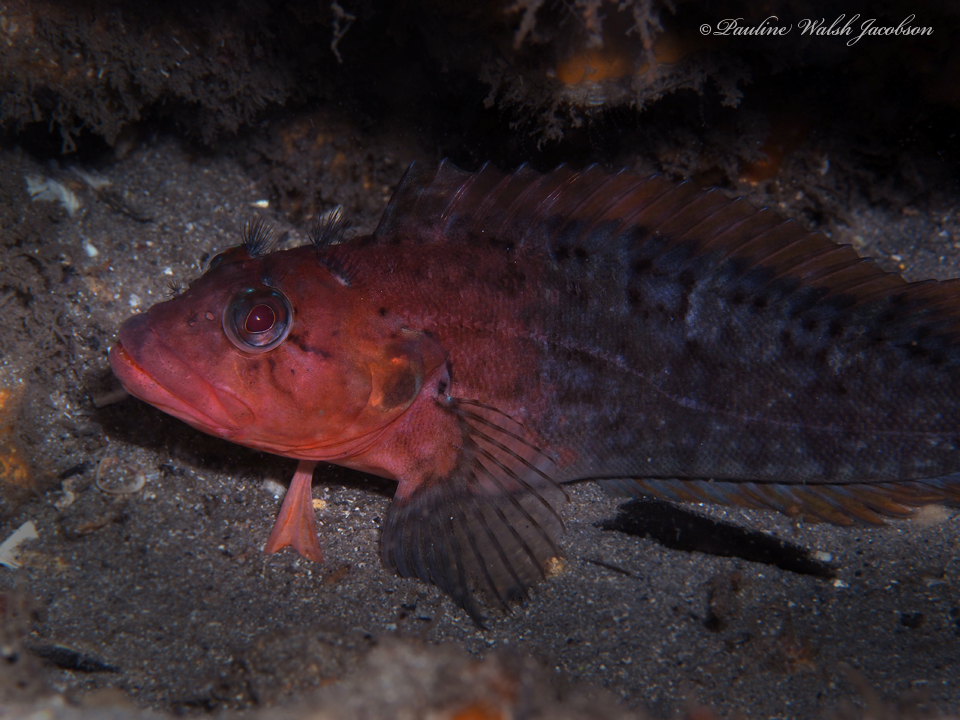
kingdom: Animalia
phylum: Chordata
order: Perciformes
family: Labrisomidae
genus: Labrisomus
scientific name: Labrisomus conditus
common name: Masquerader hairy blenny
